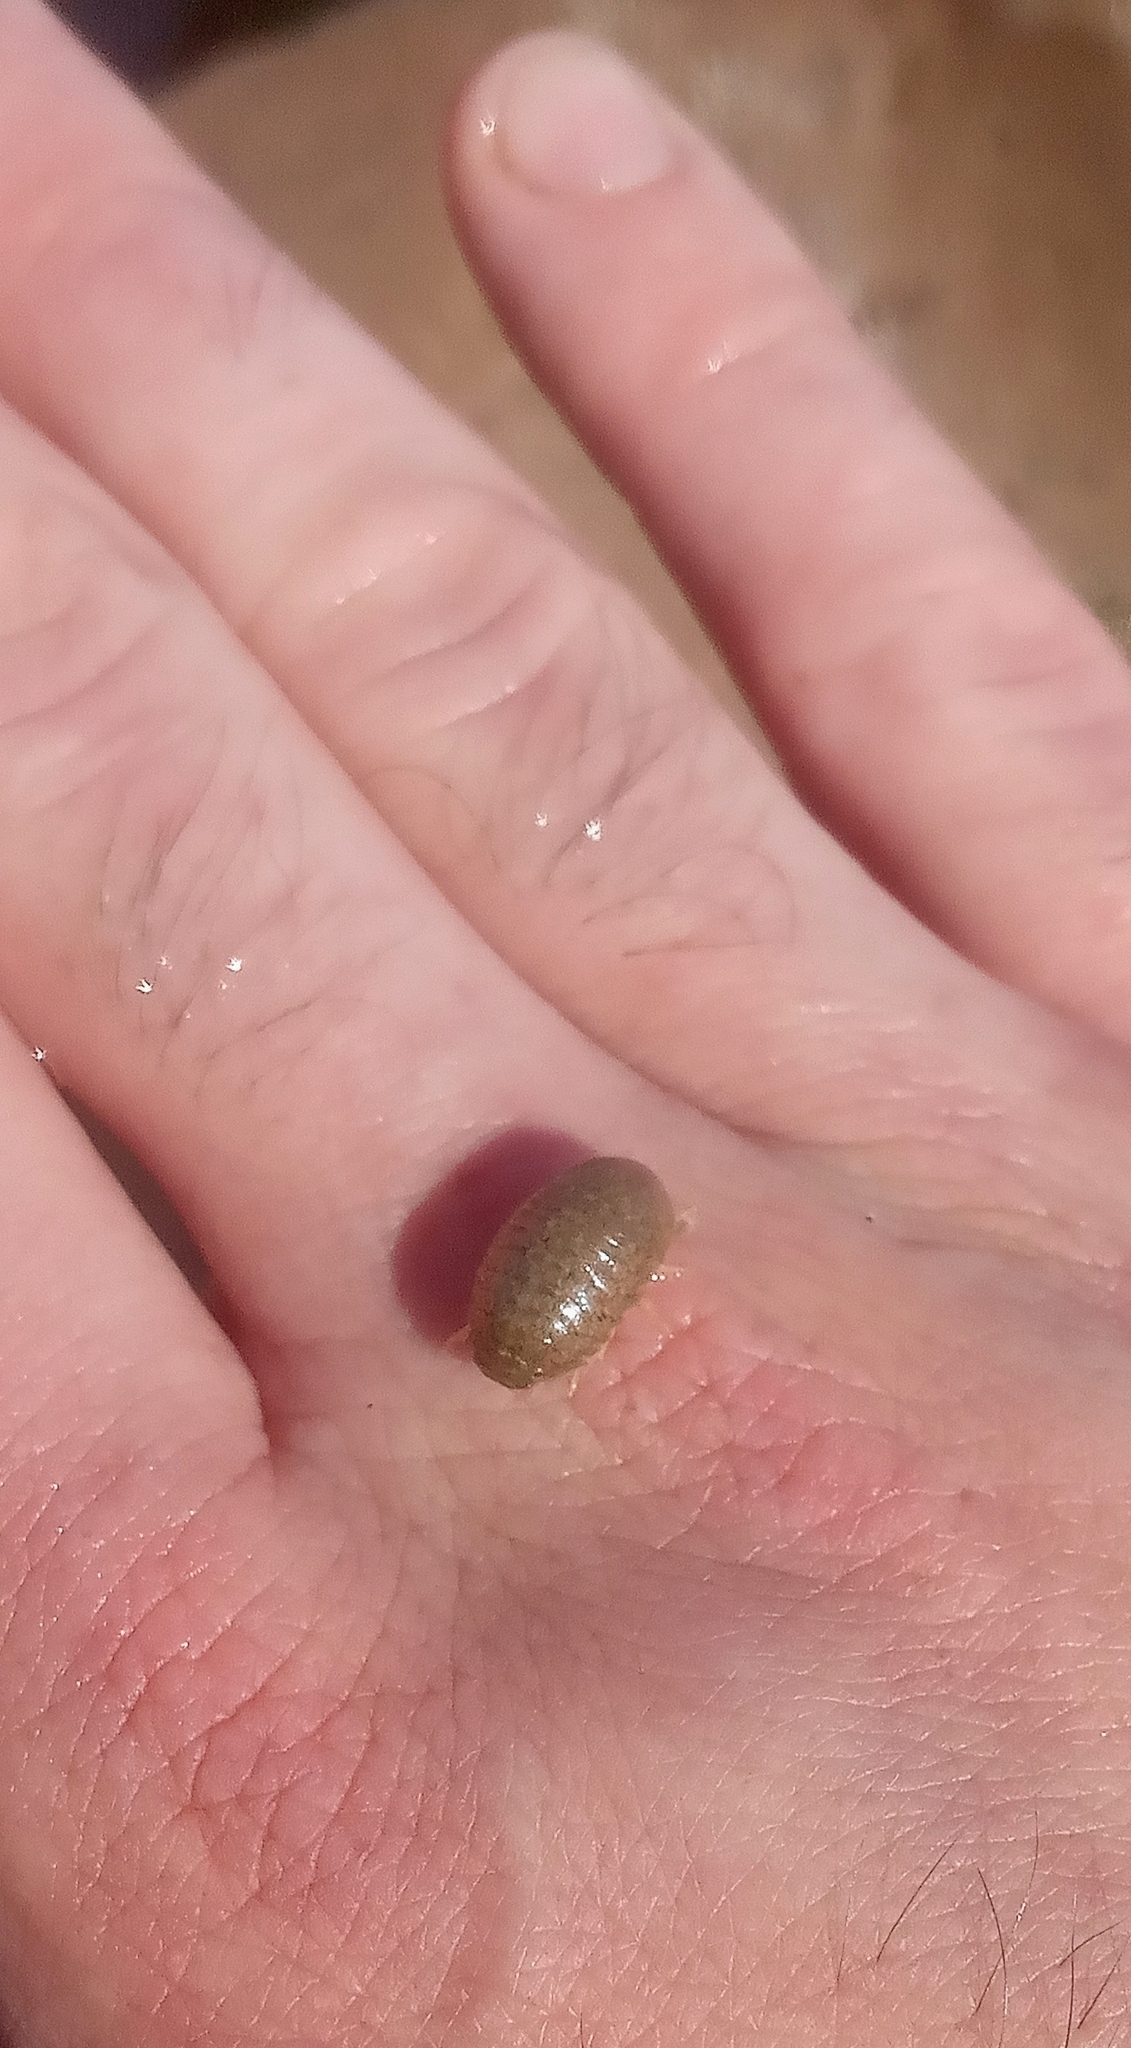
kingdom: Animalia
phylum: Arthropoda
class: Malacostraca
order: Isopoda
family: Sphaeromatidae
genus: Sphaeroma
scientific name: Sphaeroma serratum
